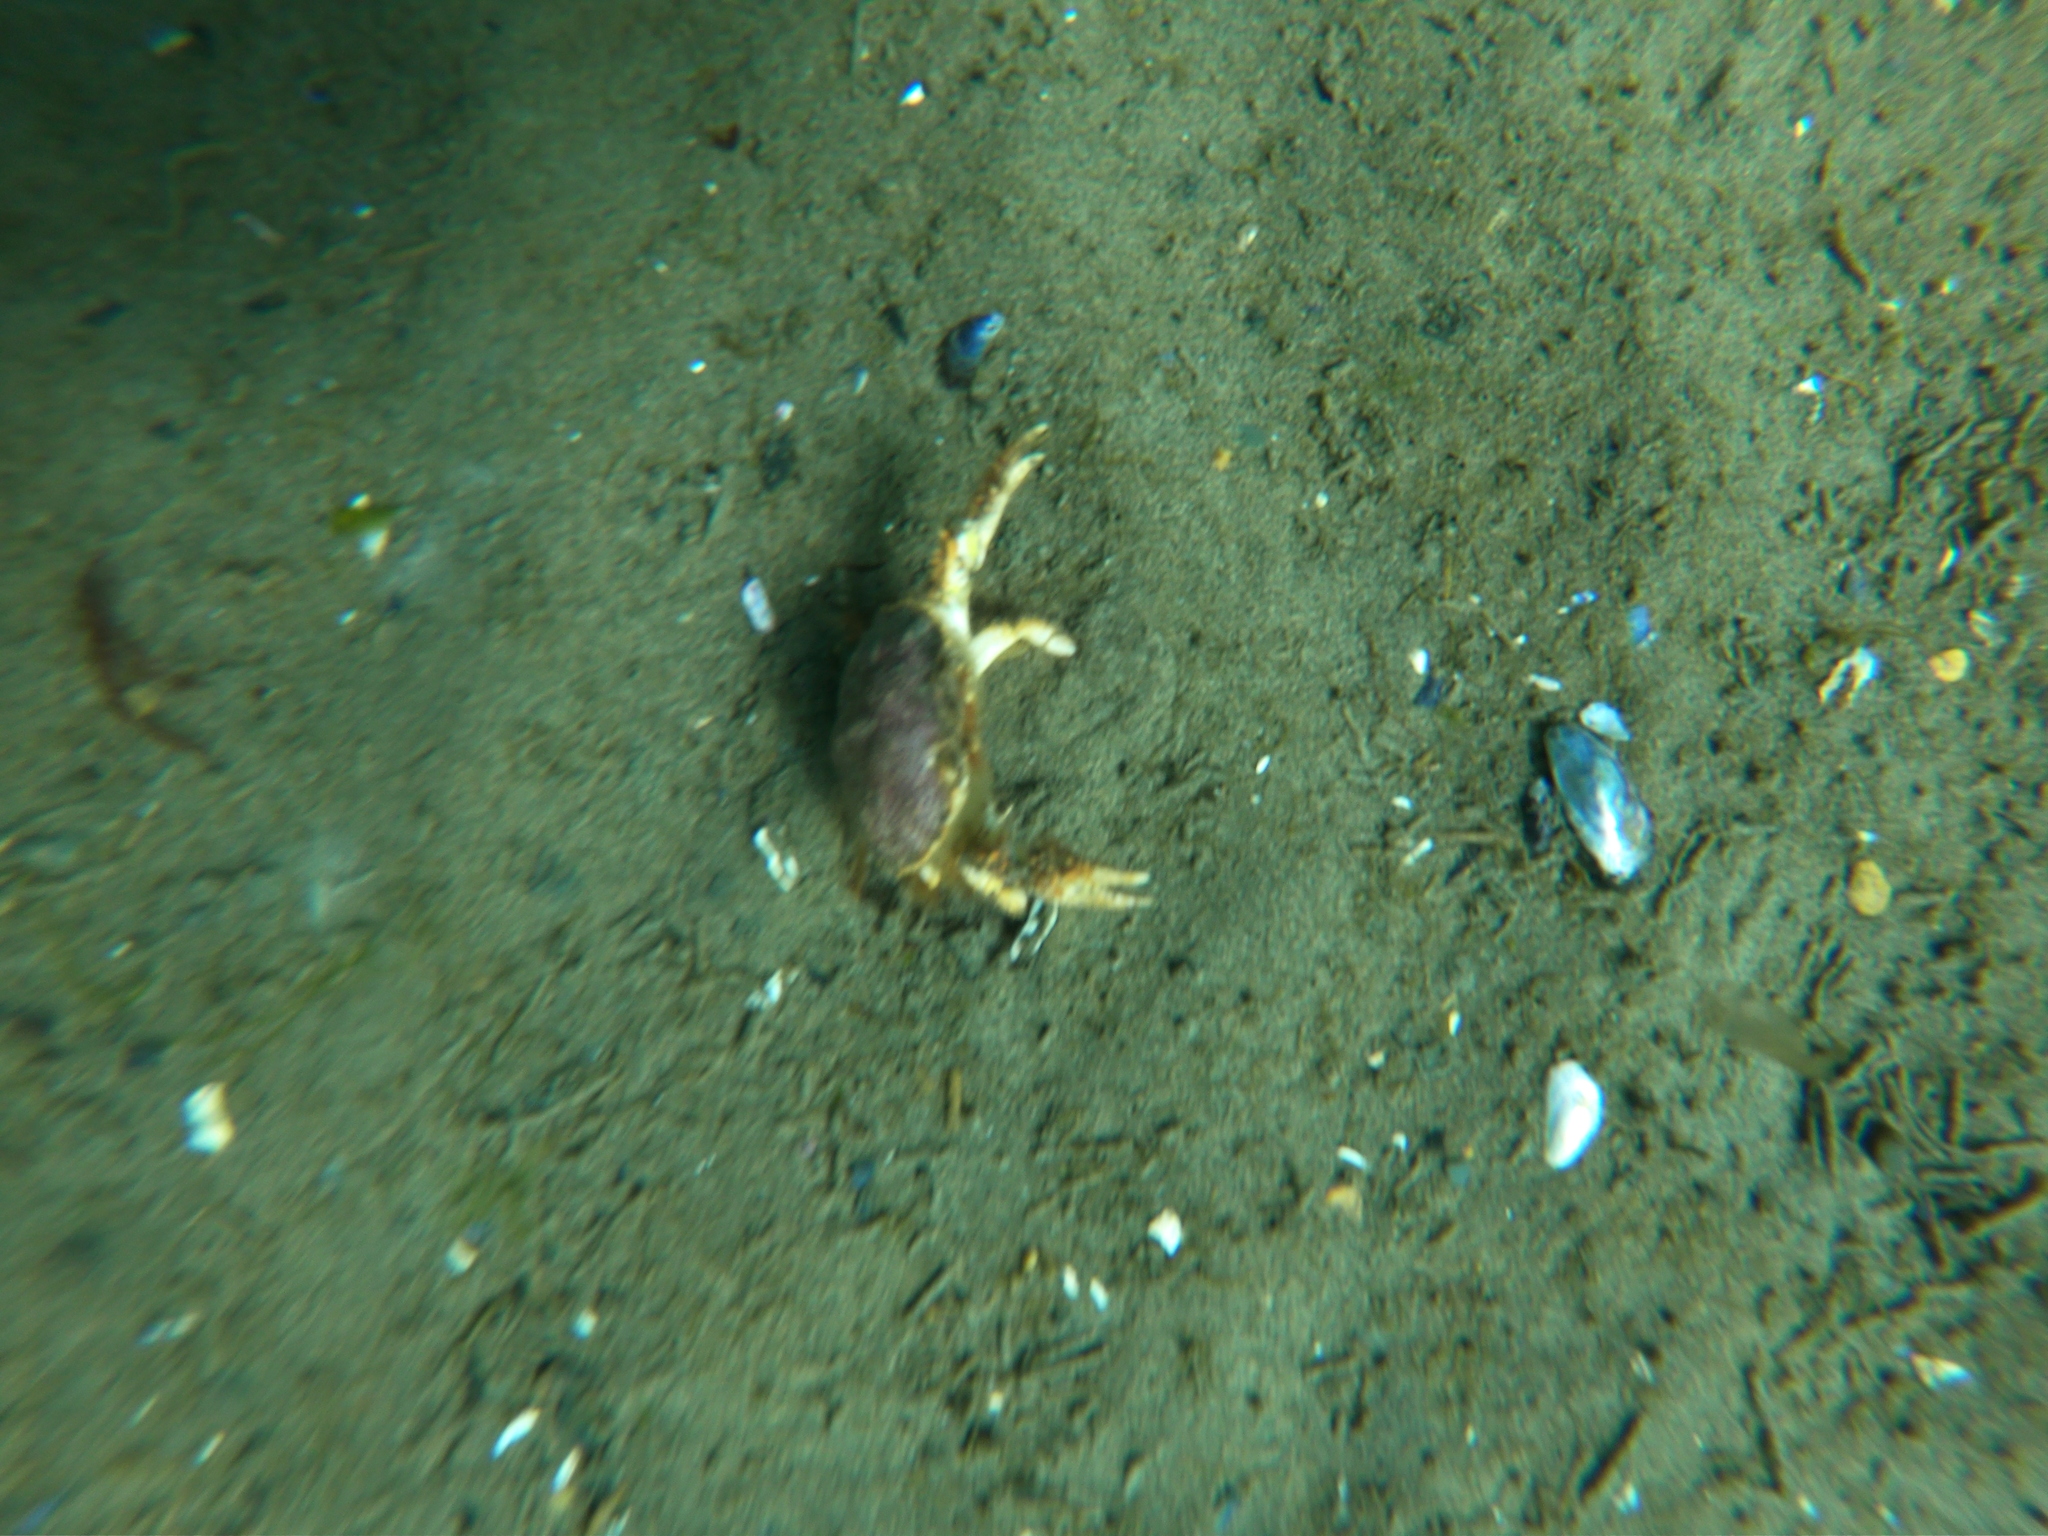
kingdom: Animalia
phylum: Arthropoda
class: Malacostraca
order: Decapoda
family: Trichopeltariidae
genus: Peltarion
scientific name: Peltarion spinulosum
